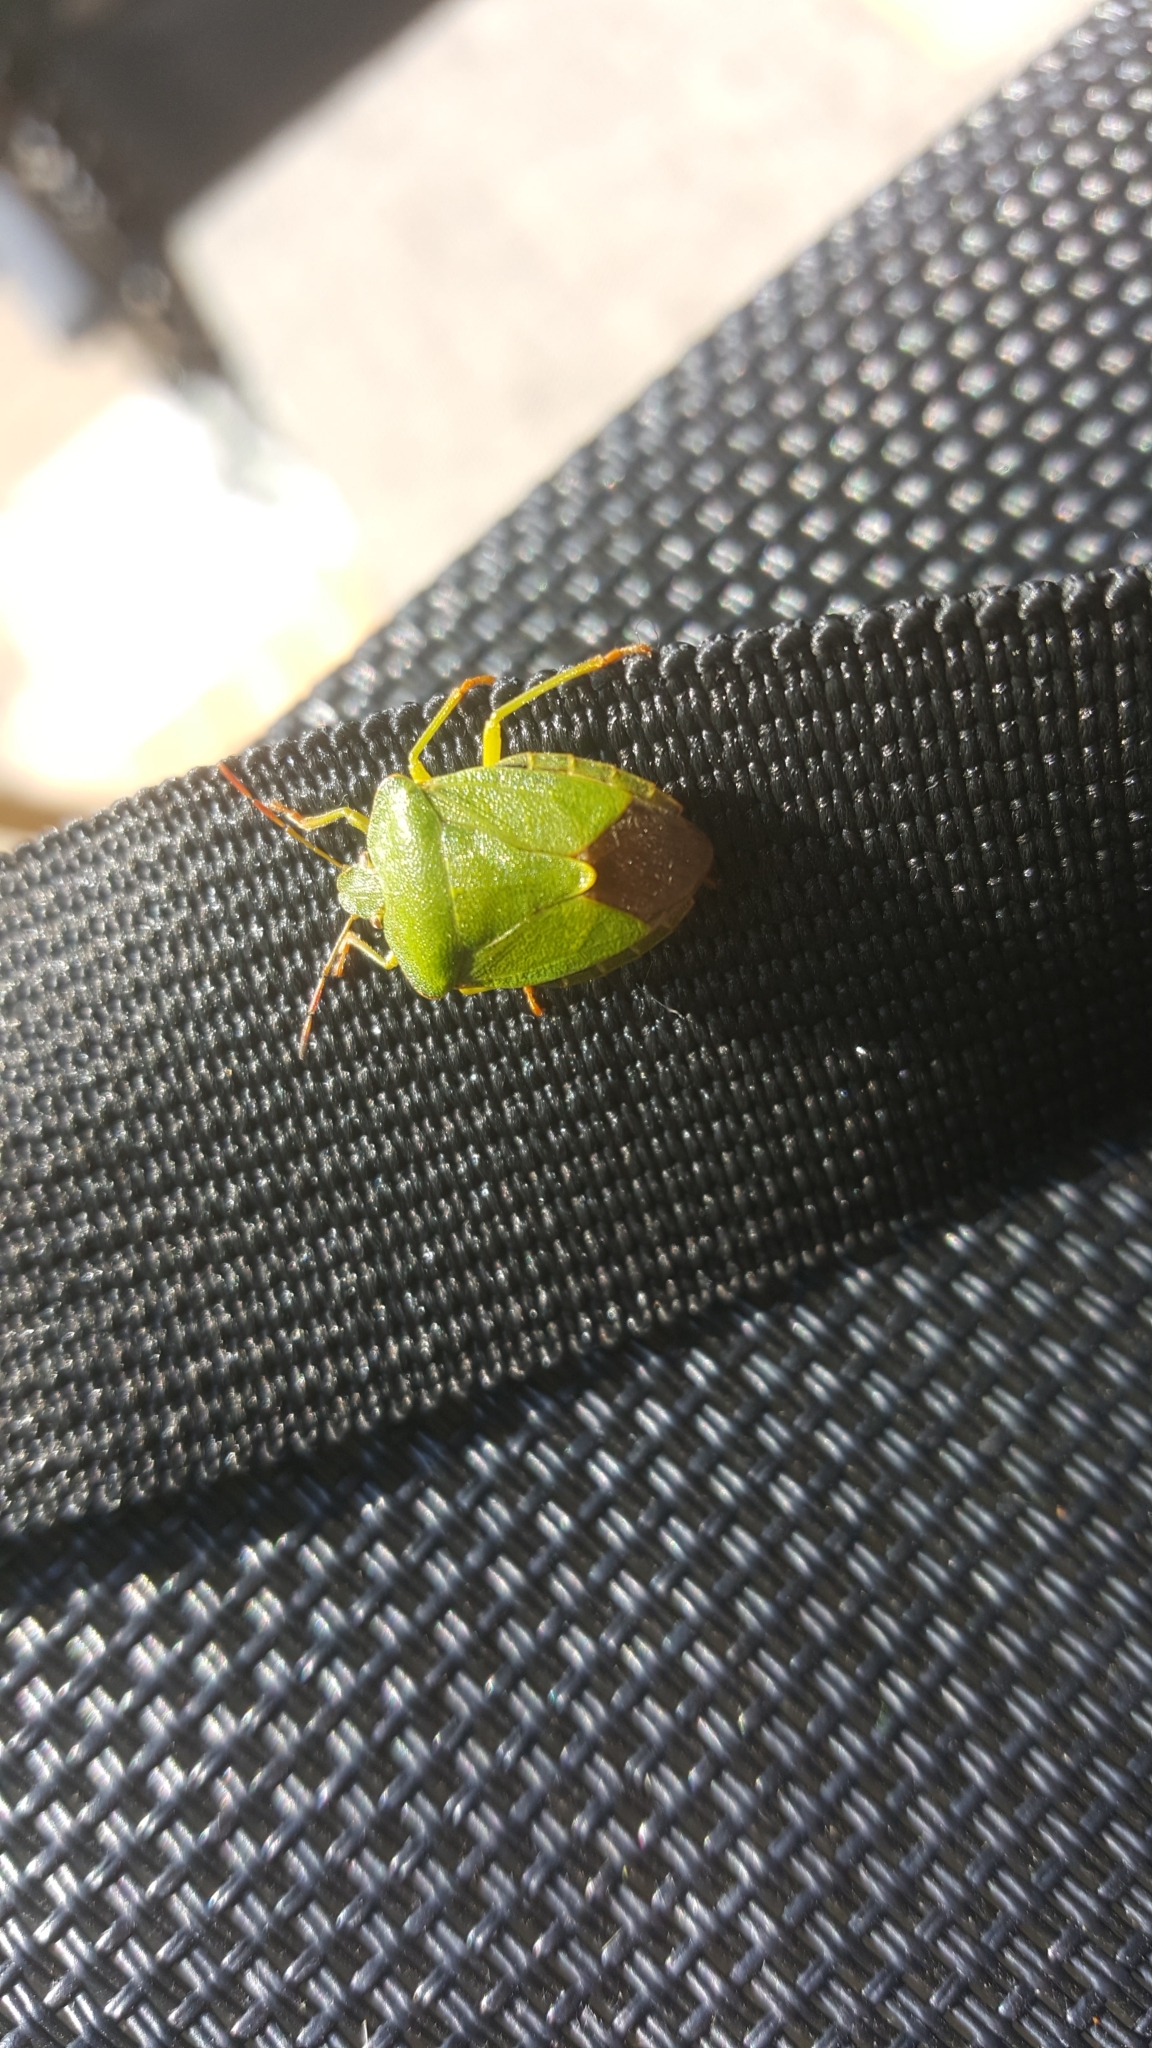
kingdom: Animalia
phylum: Arthropoda
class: Insecta
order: Hemiptera
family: Pentatomidae
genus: Palomena
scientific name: Palomena prasina
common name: Green shieldbug
